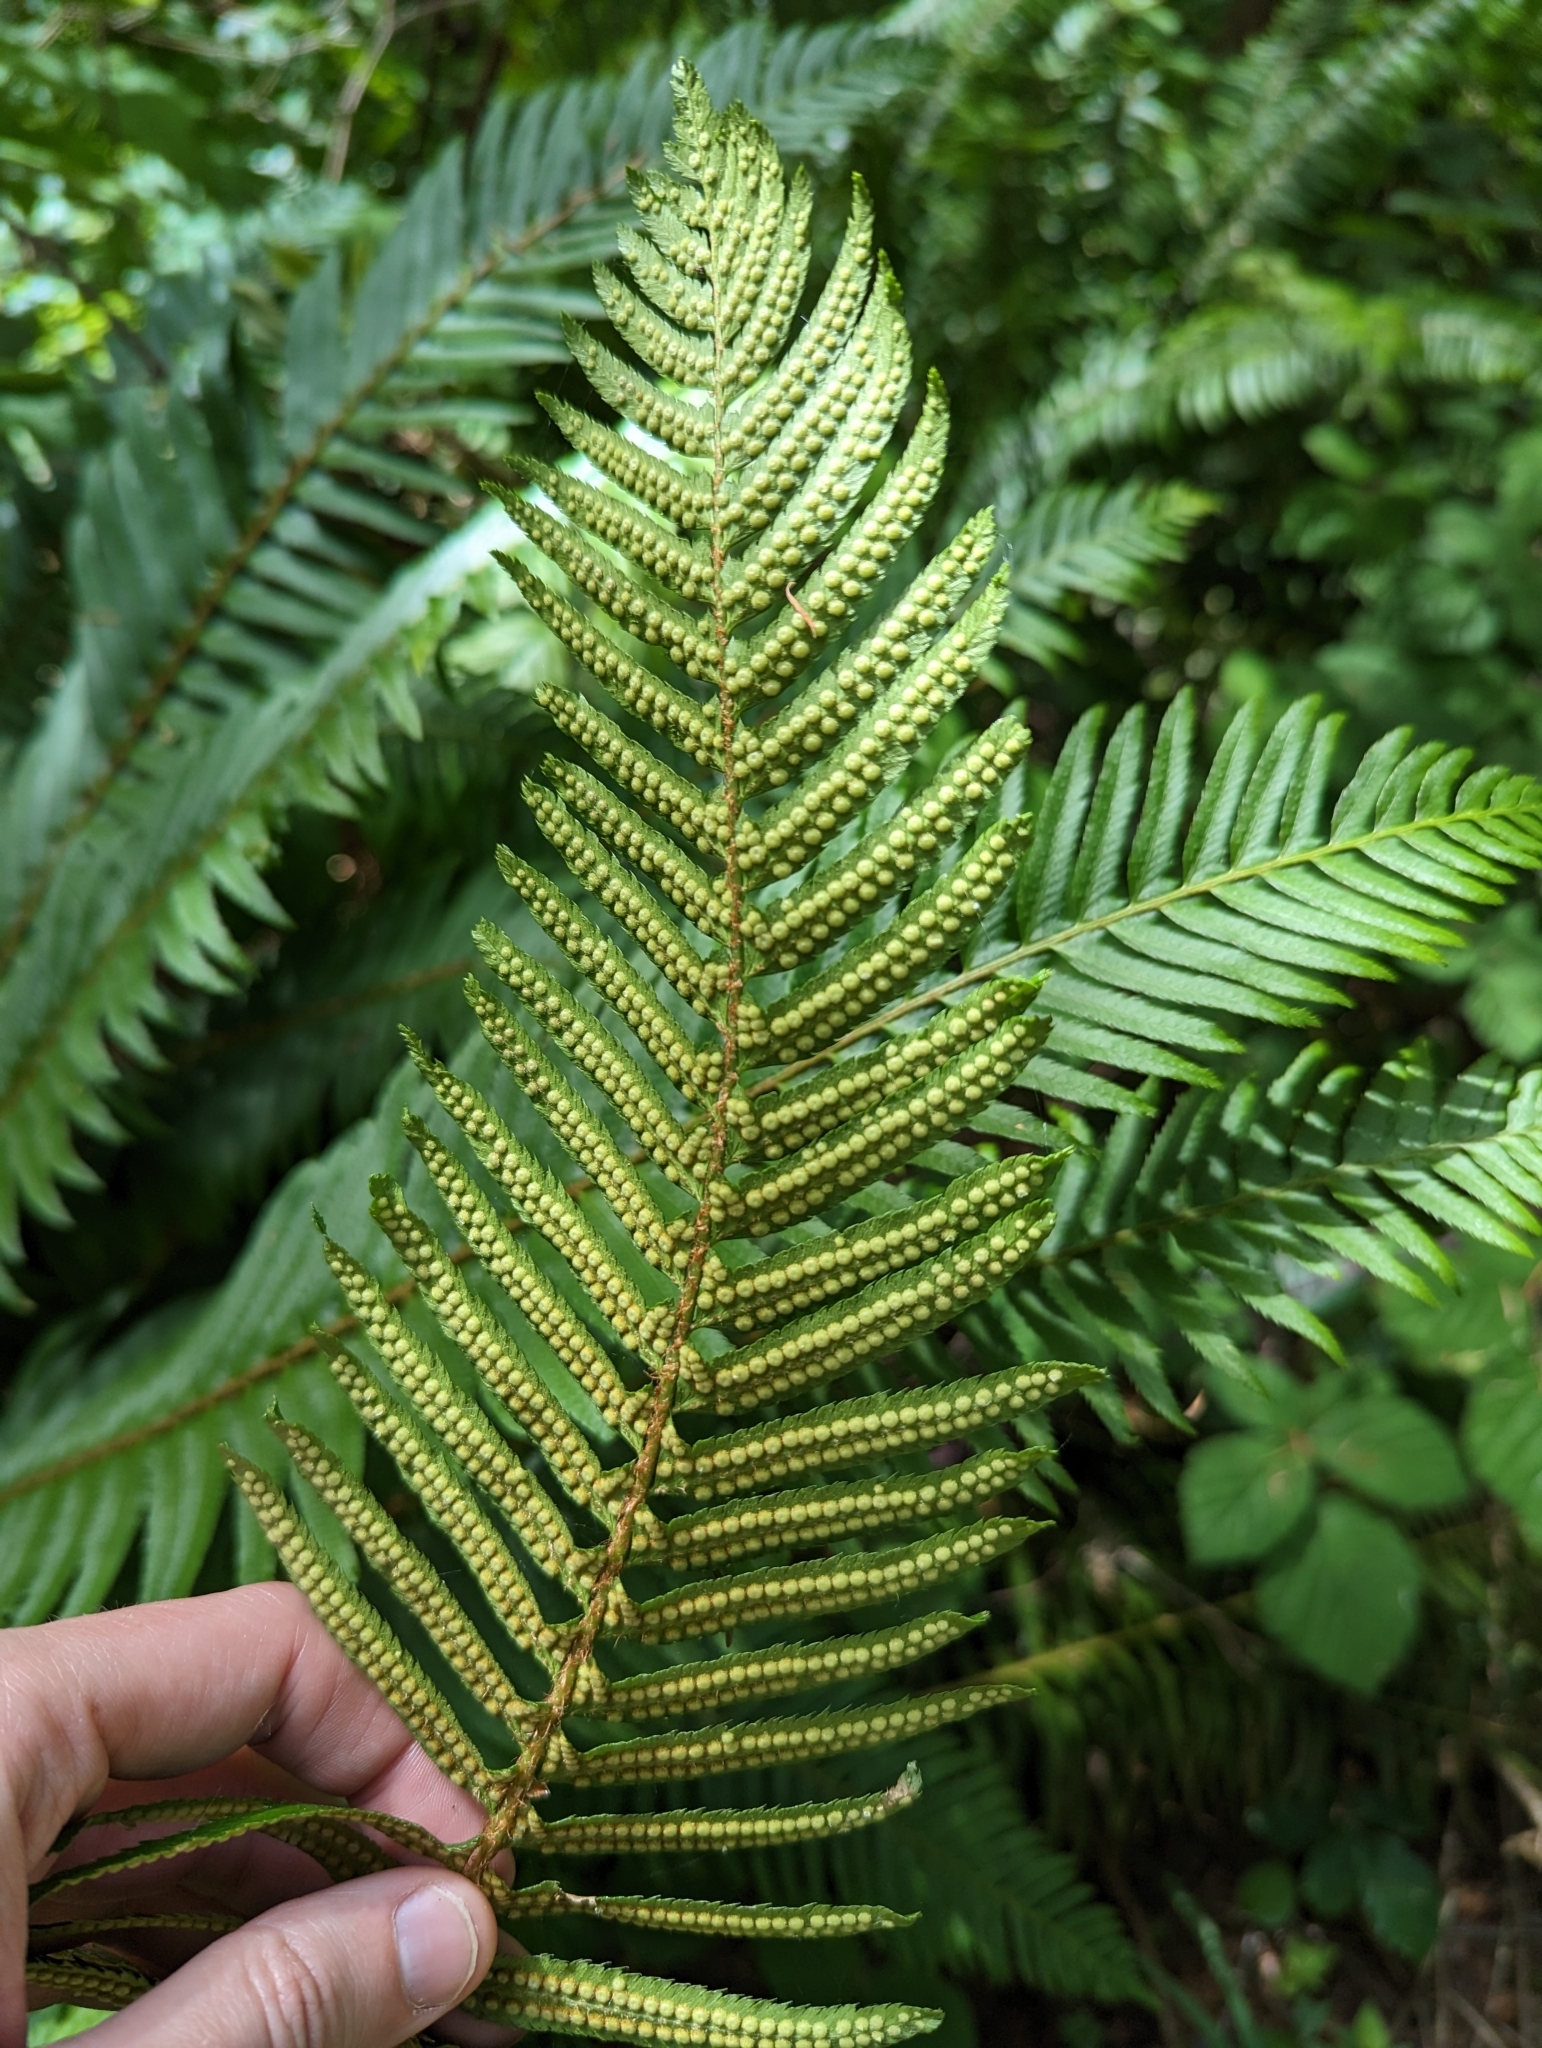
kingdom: Plantae
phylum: Tracheophyta
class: Polypodiopsida
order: Polypodiales
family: Dryopteridaceae
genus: Polystichum
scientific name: Polystichum munitum
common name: Western sword-fern
